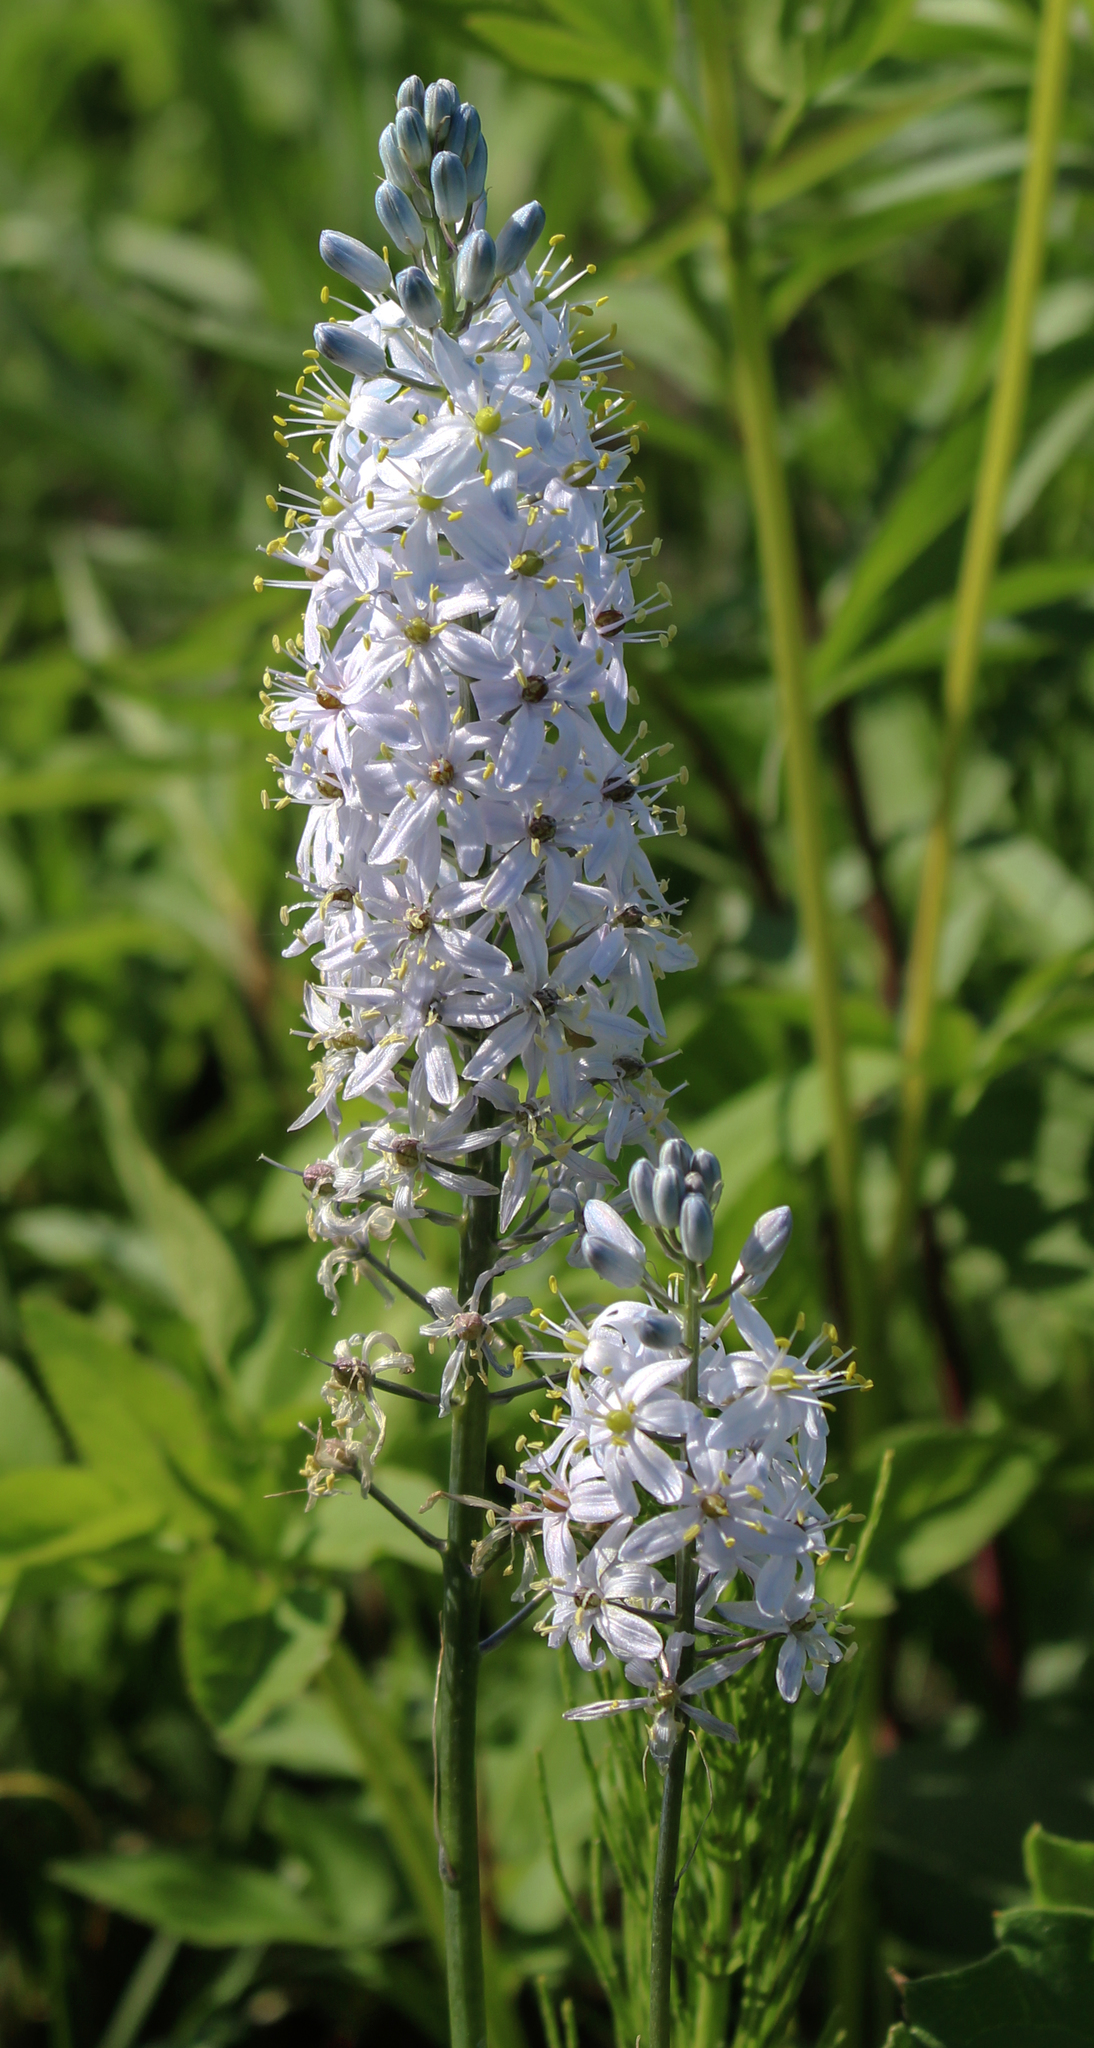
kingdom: Plantae
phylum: Tracheophyta
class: Liliopsida
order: Asparagales
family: Asparagaceae
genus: Camassia
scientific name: Camassia scilloides
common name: Wild hyacinth
